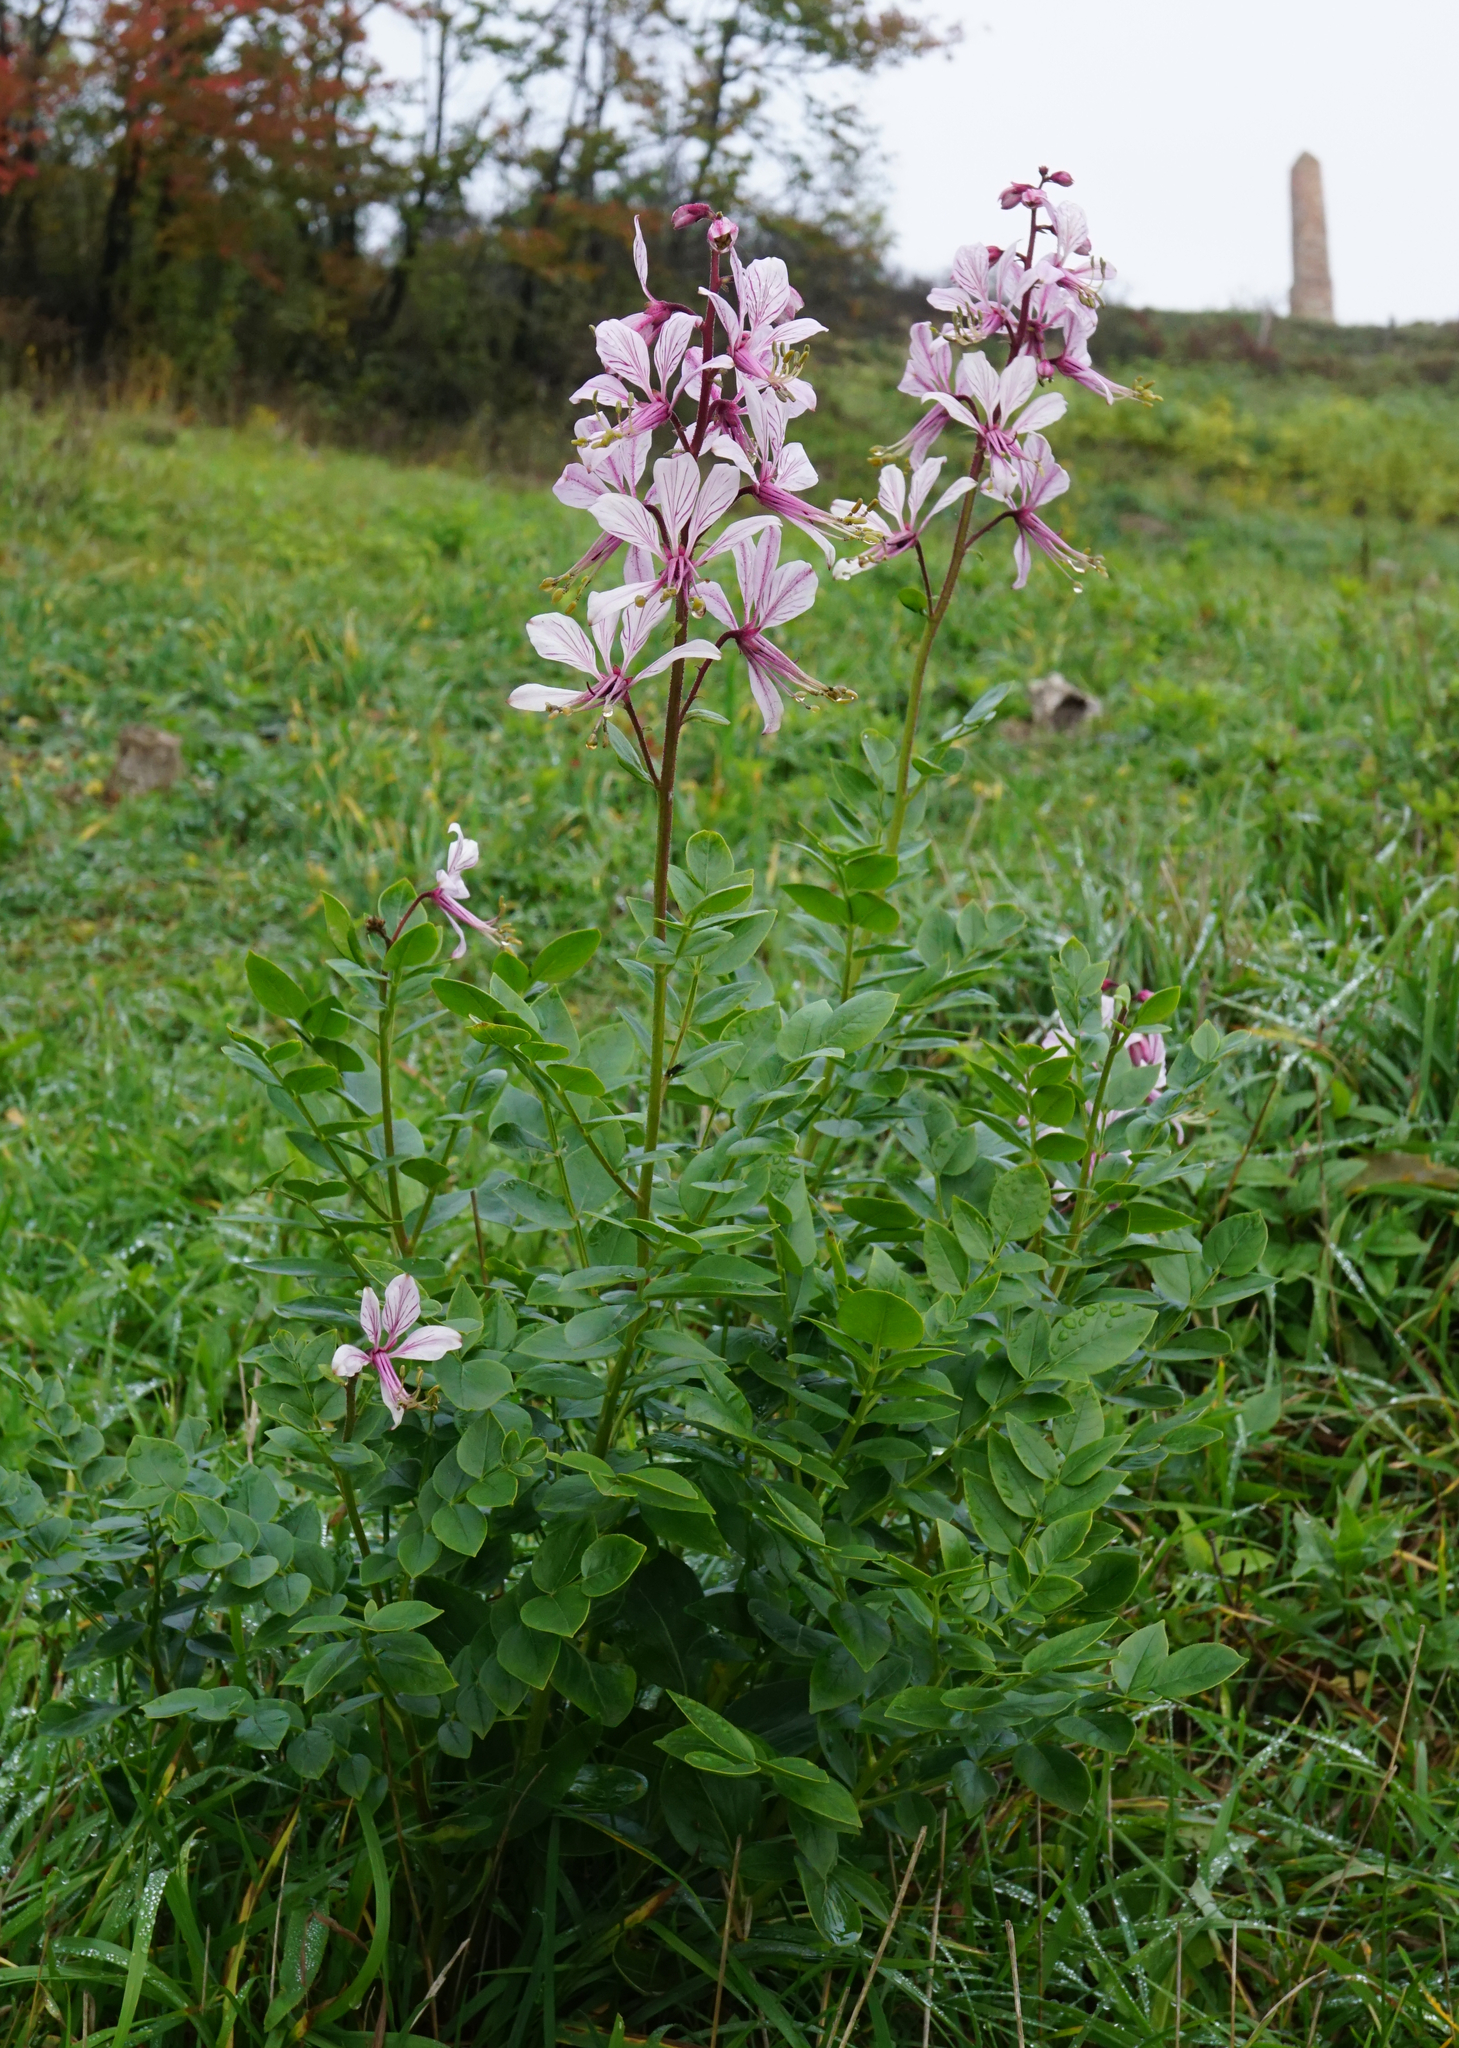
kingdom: Plantae
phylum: Tracheophyta
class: Magnoliopsida
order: Sapindales
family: Rutaceae
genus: Dictamnus
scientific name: Dictamnus albus
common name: Gasplant
